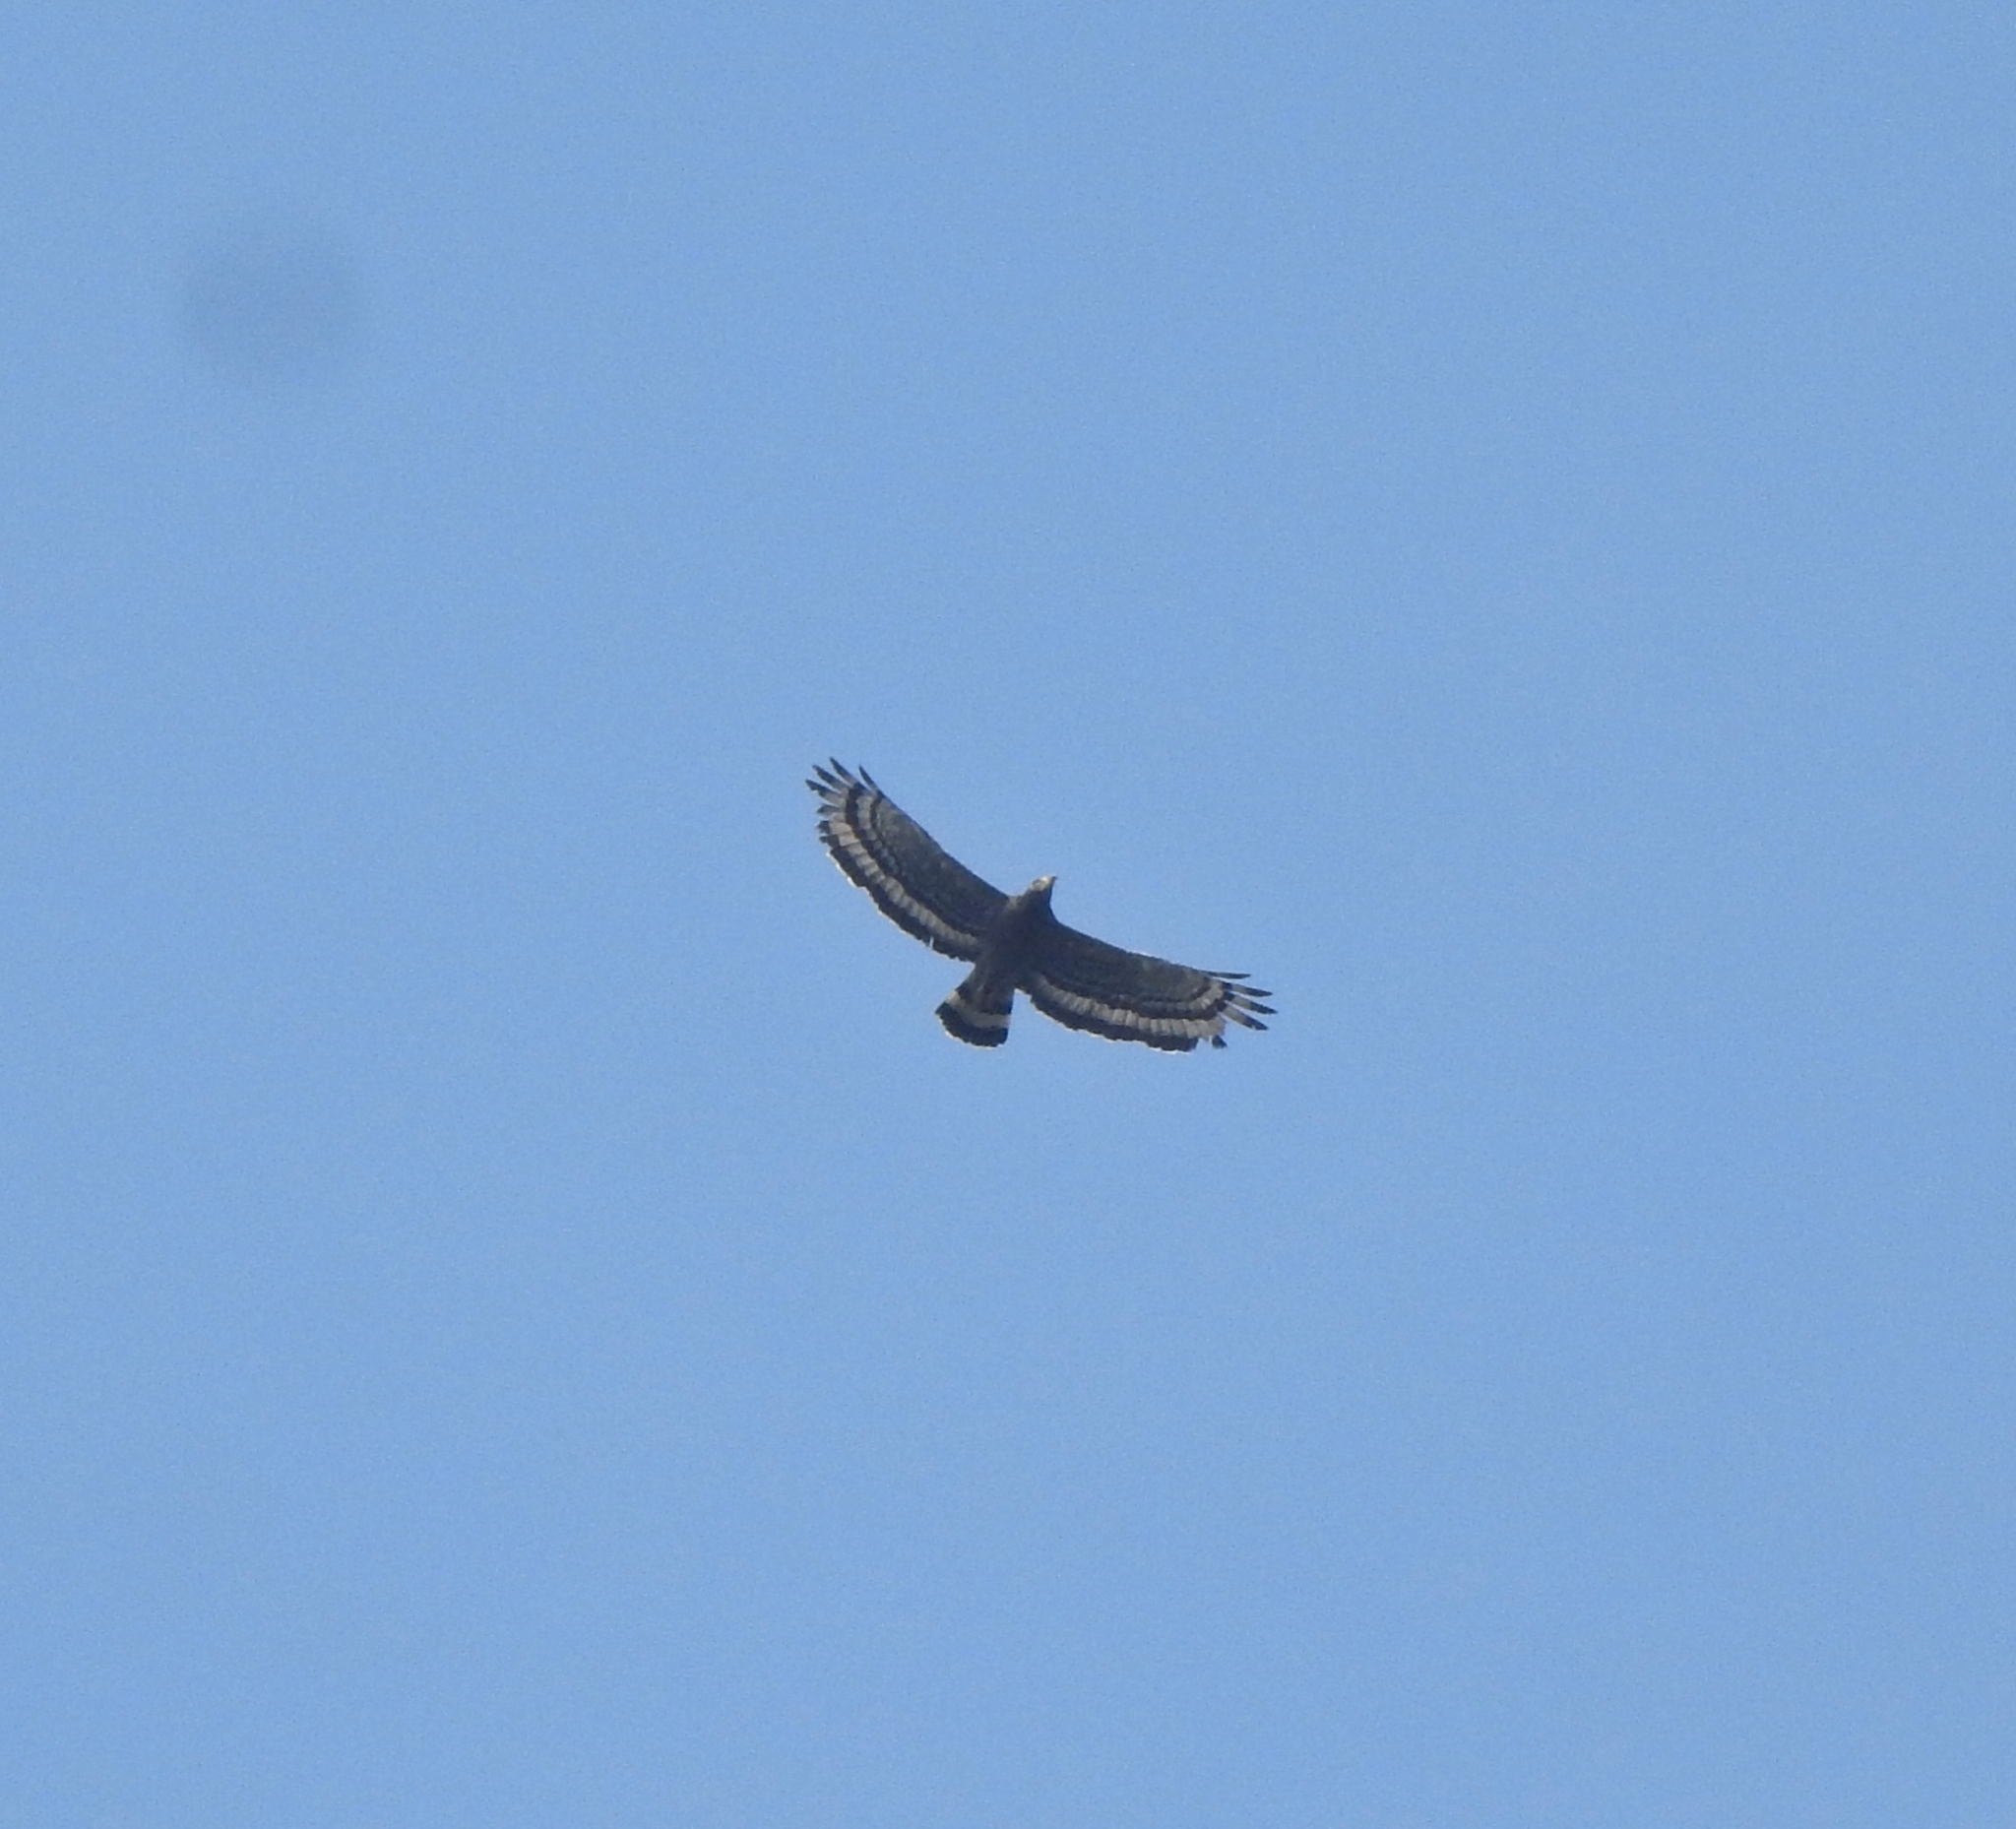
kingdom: Animalia
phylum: Chordata
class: Aves
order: Accipitriformes
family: Accipitridae
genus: Spilornis
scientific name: Spilornis cheela
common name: Crested serpent eagle
